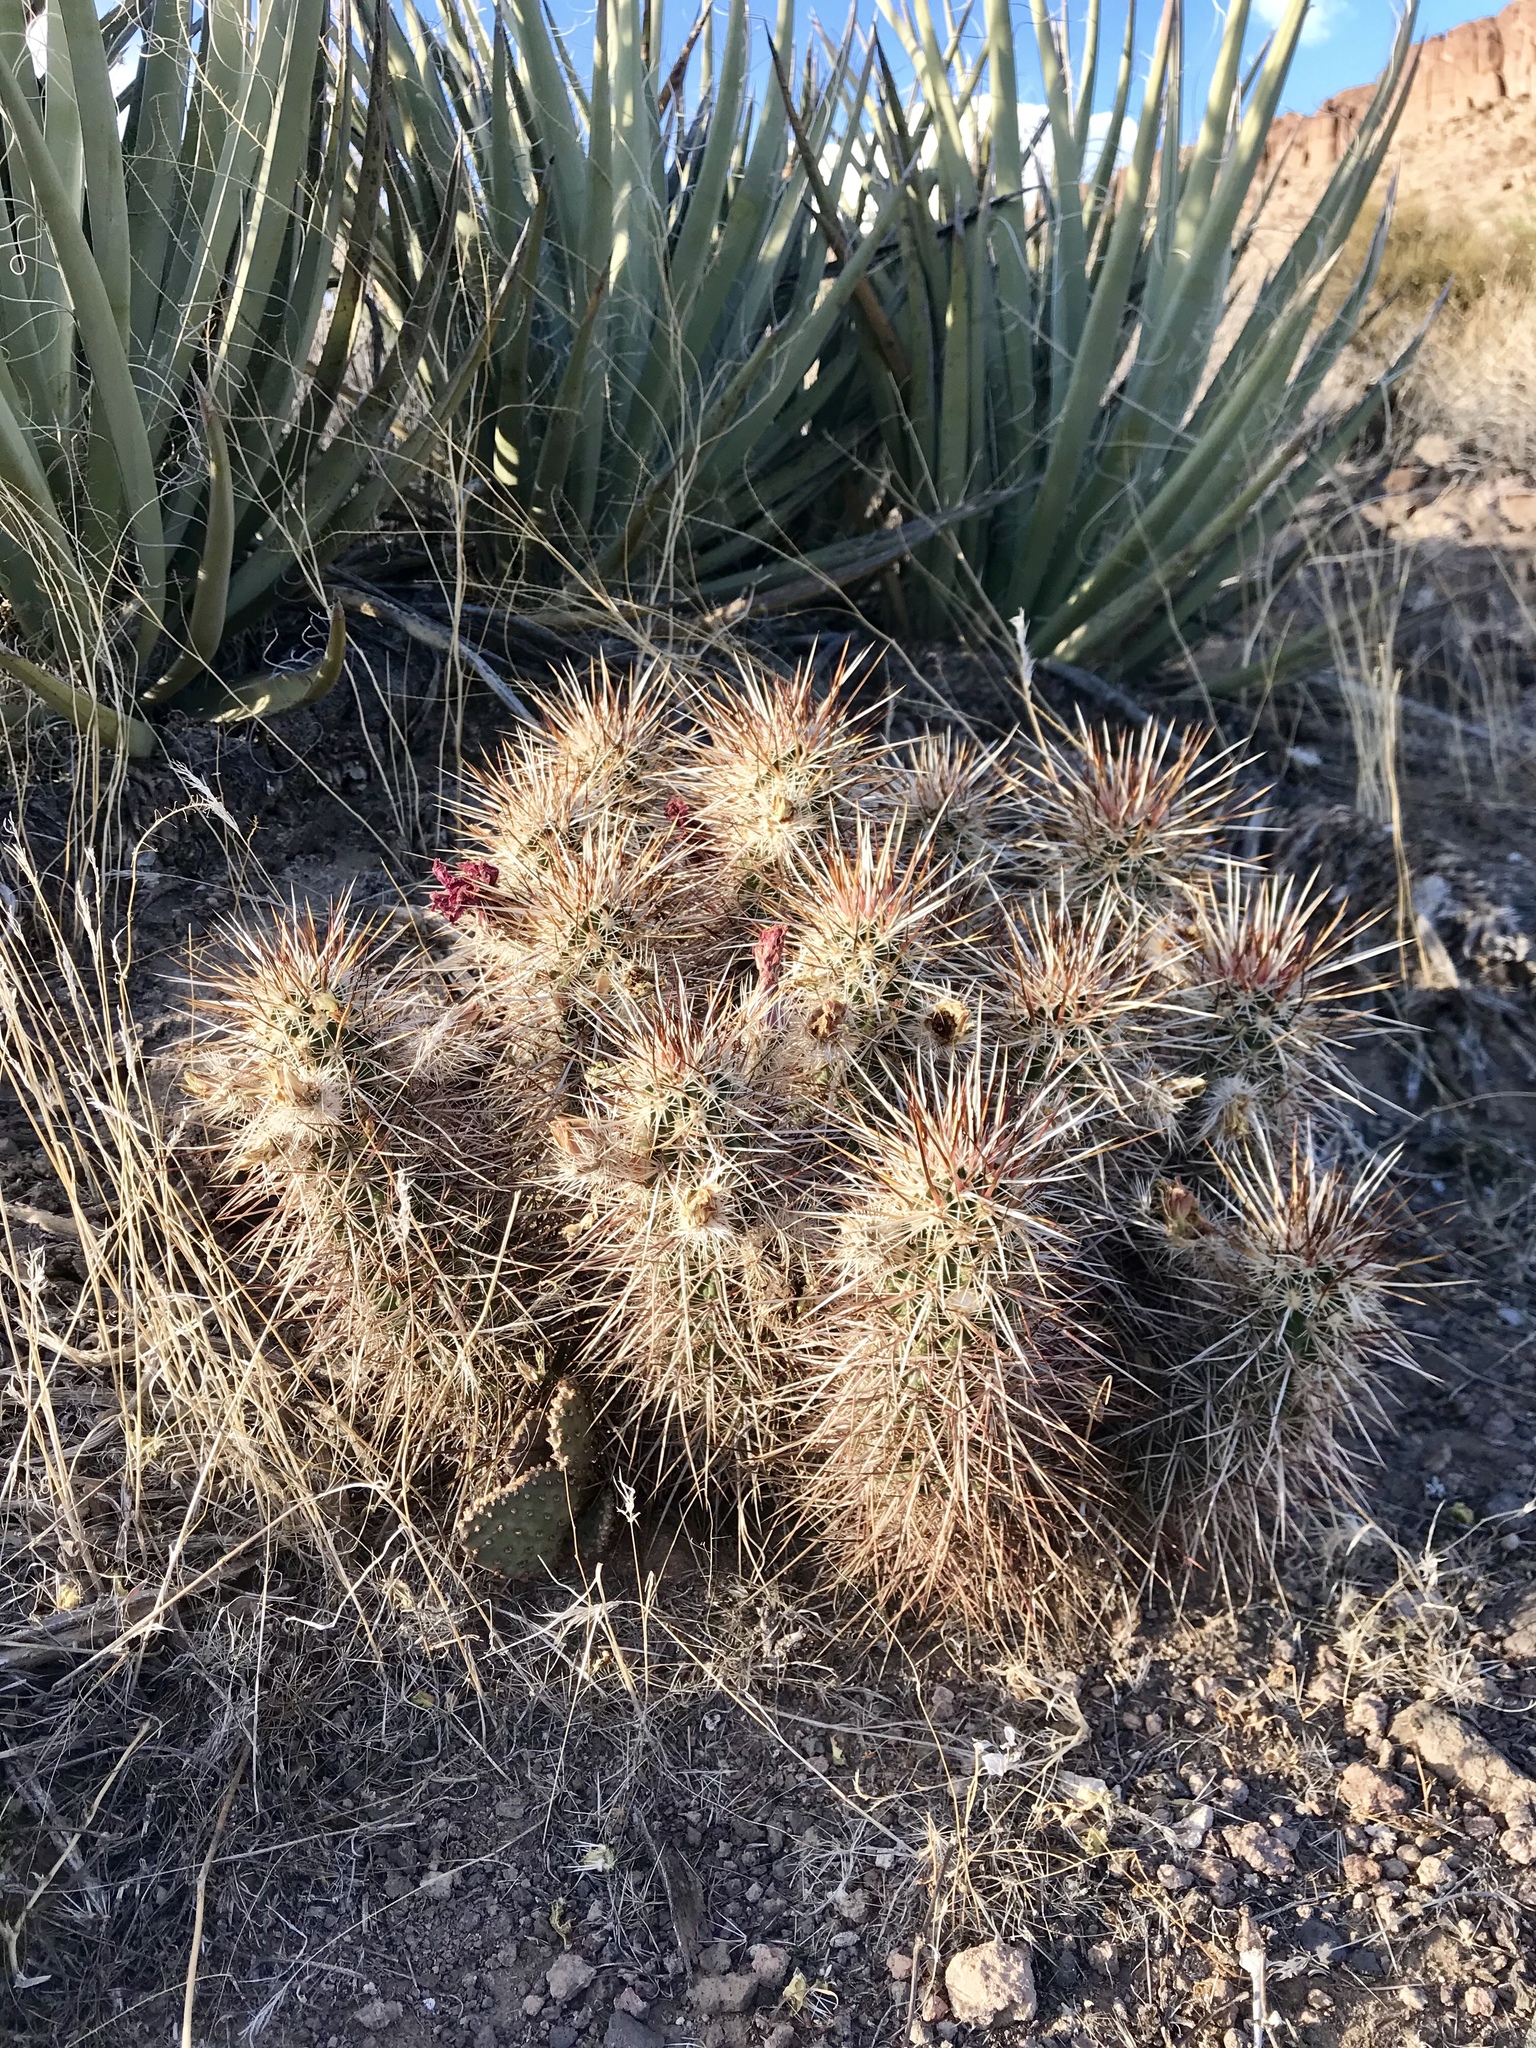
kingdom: Plantae
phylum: Tracheophyta
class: Magnoliopsida
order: Caryophyllales
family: Cactaceae
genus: Echinocereus
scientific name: Echinocereus engelmannii
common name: Engelmann's hedgehog cactus
